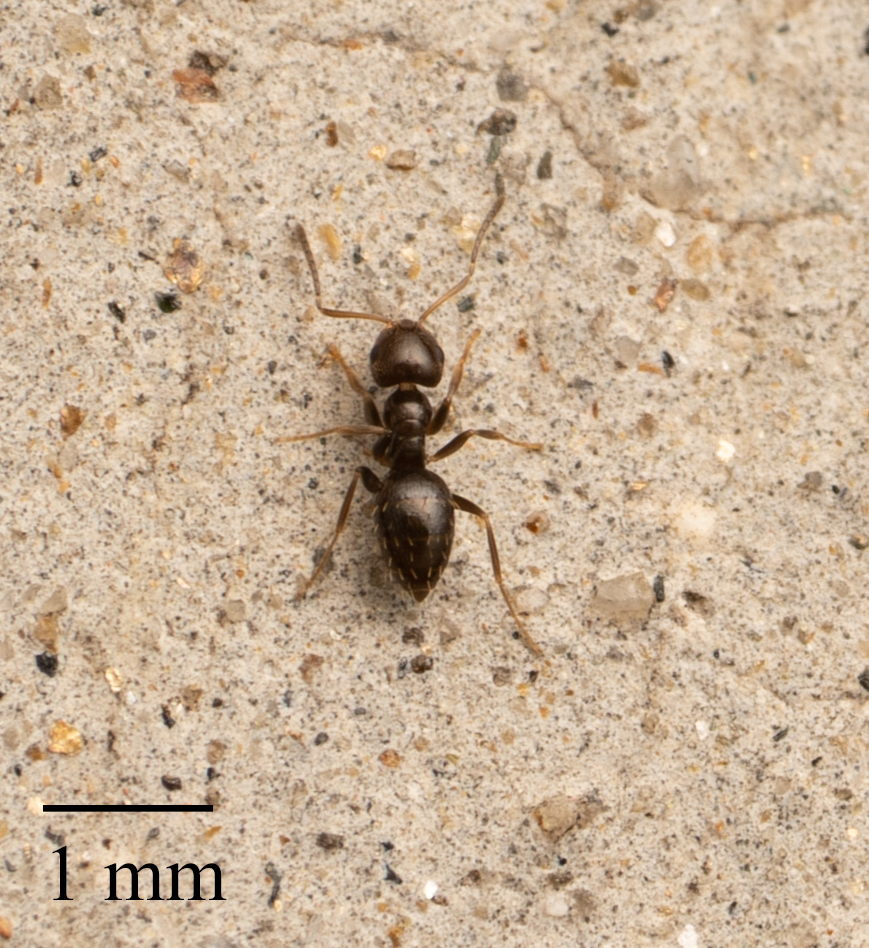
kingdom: Animalia
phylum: Arthropoda
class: Insecta
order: Hymenoptera
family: Formicidae
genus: Brachymyrmex
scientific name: Brachymyrmex patagonicus
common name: Dark rover ant
